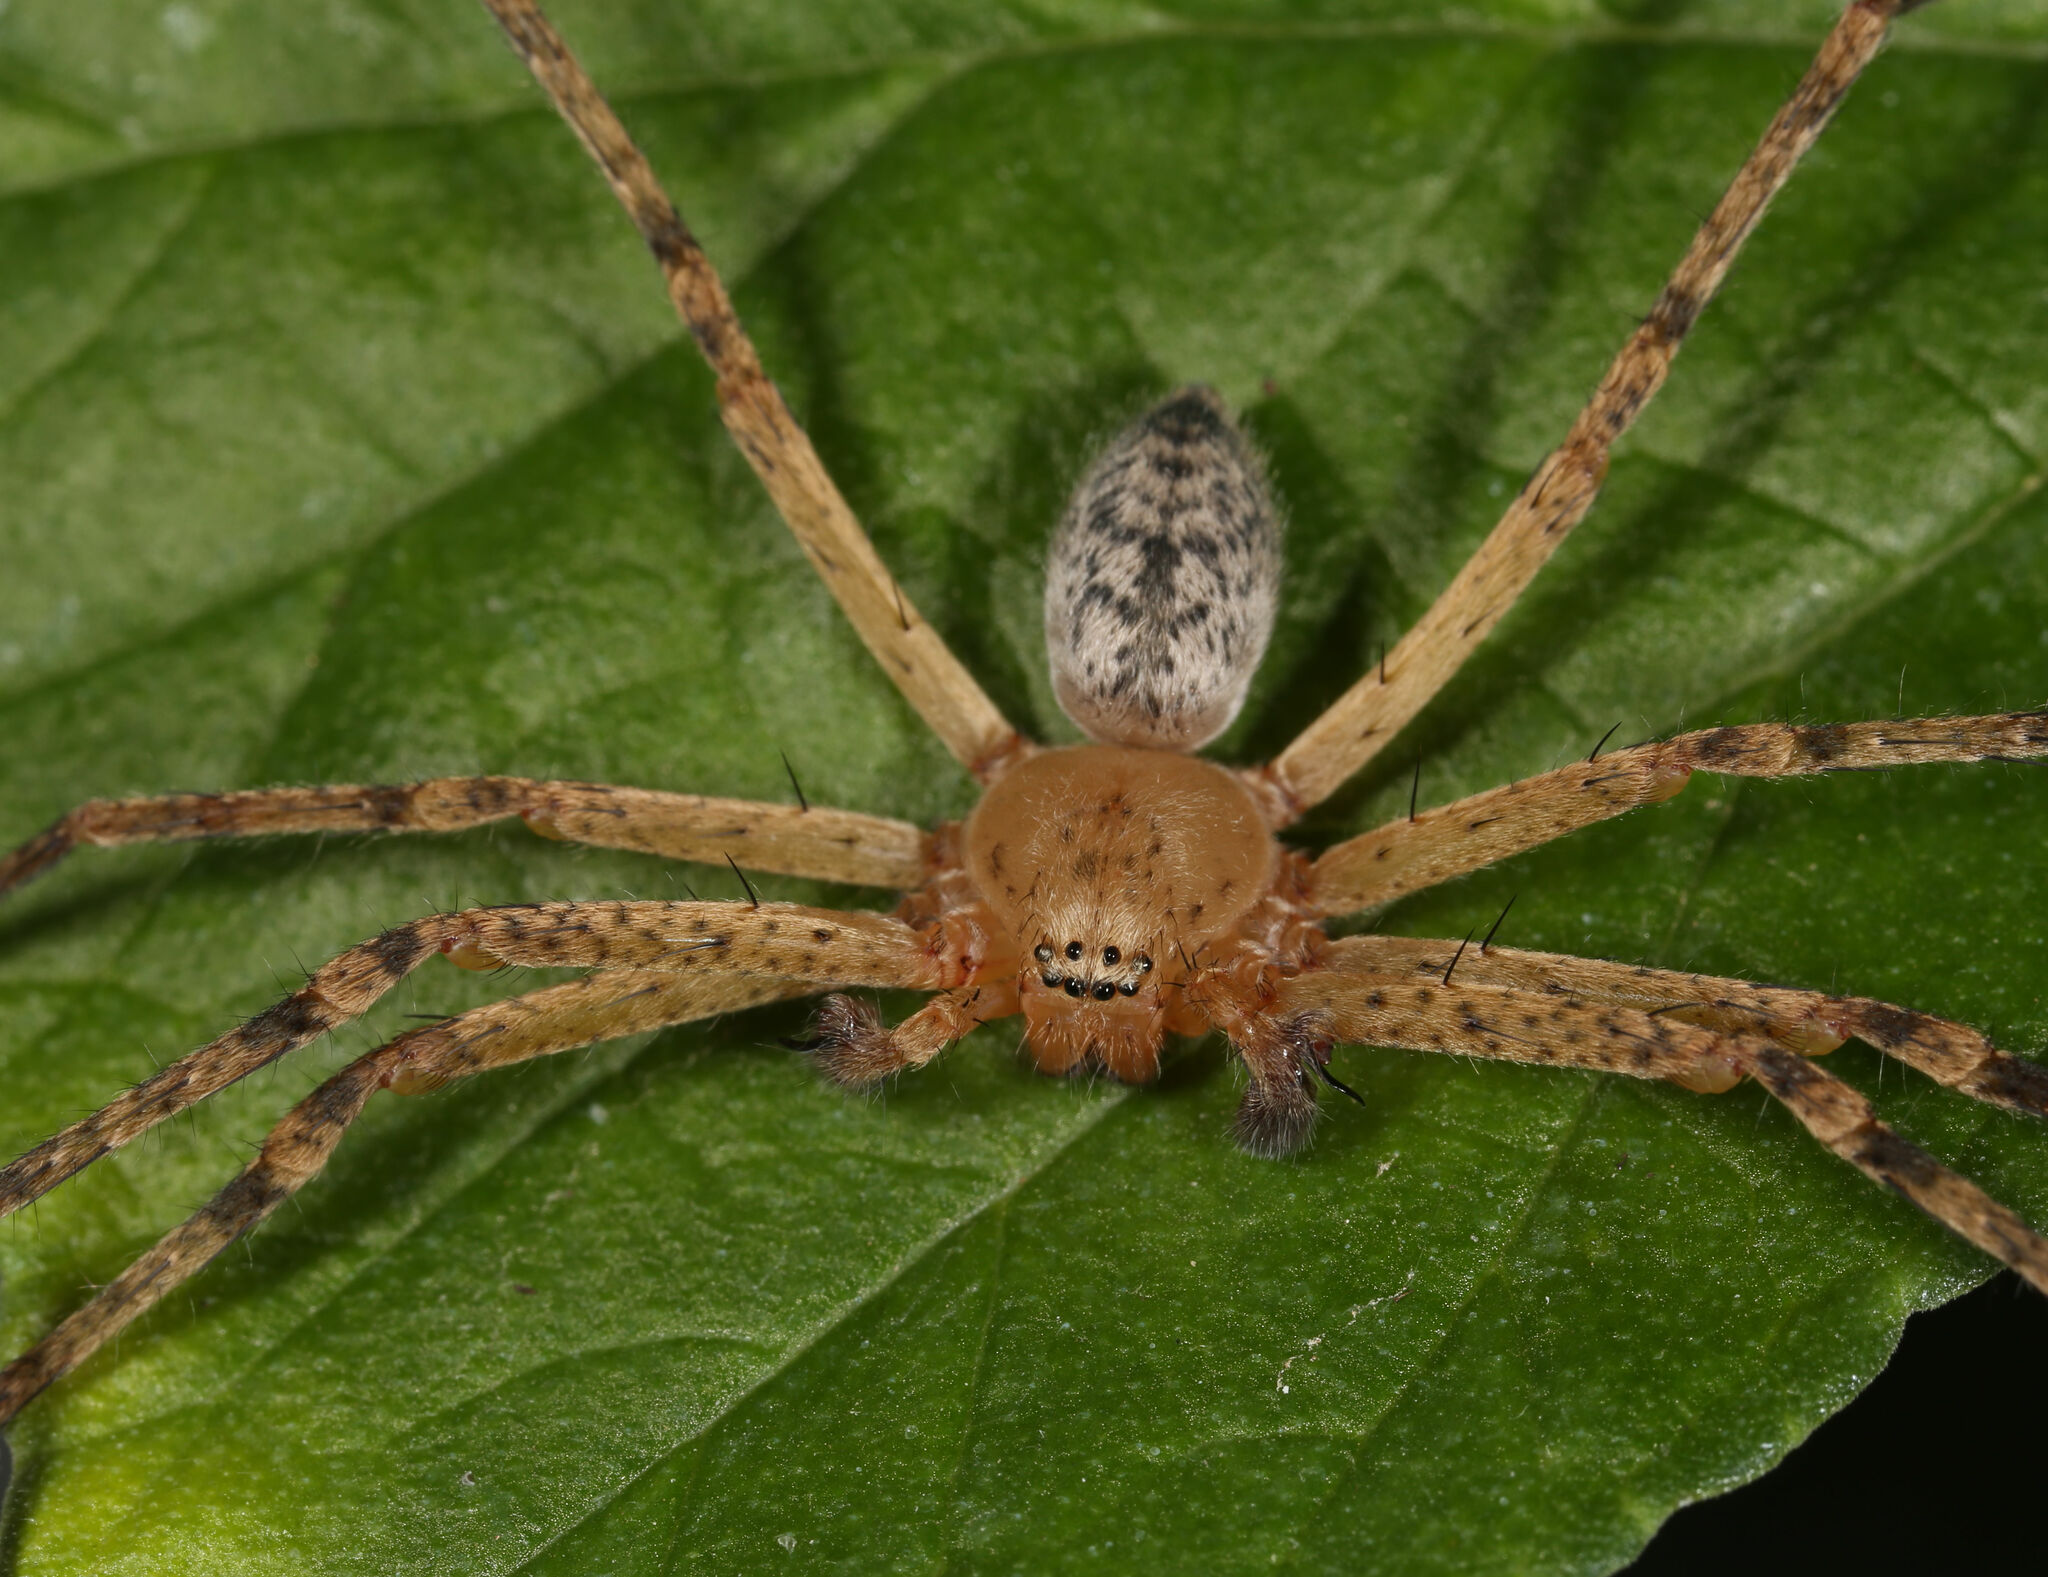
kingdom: Animalia
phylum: Arthropoda
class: Arachnida
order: Araneae
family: Sparassidae
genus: Curicaberis
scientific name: Curicaberis bibranchiatus
